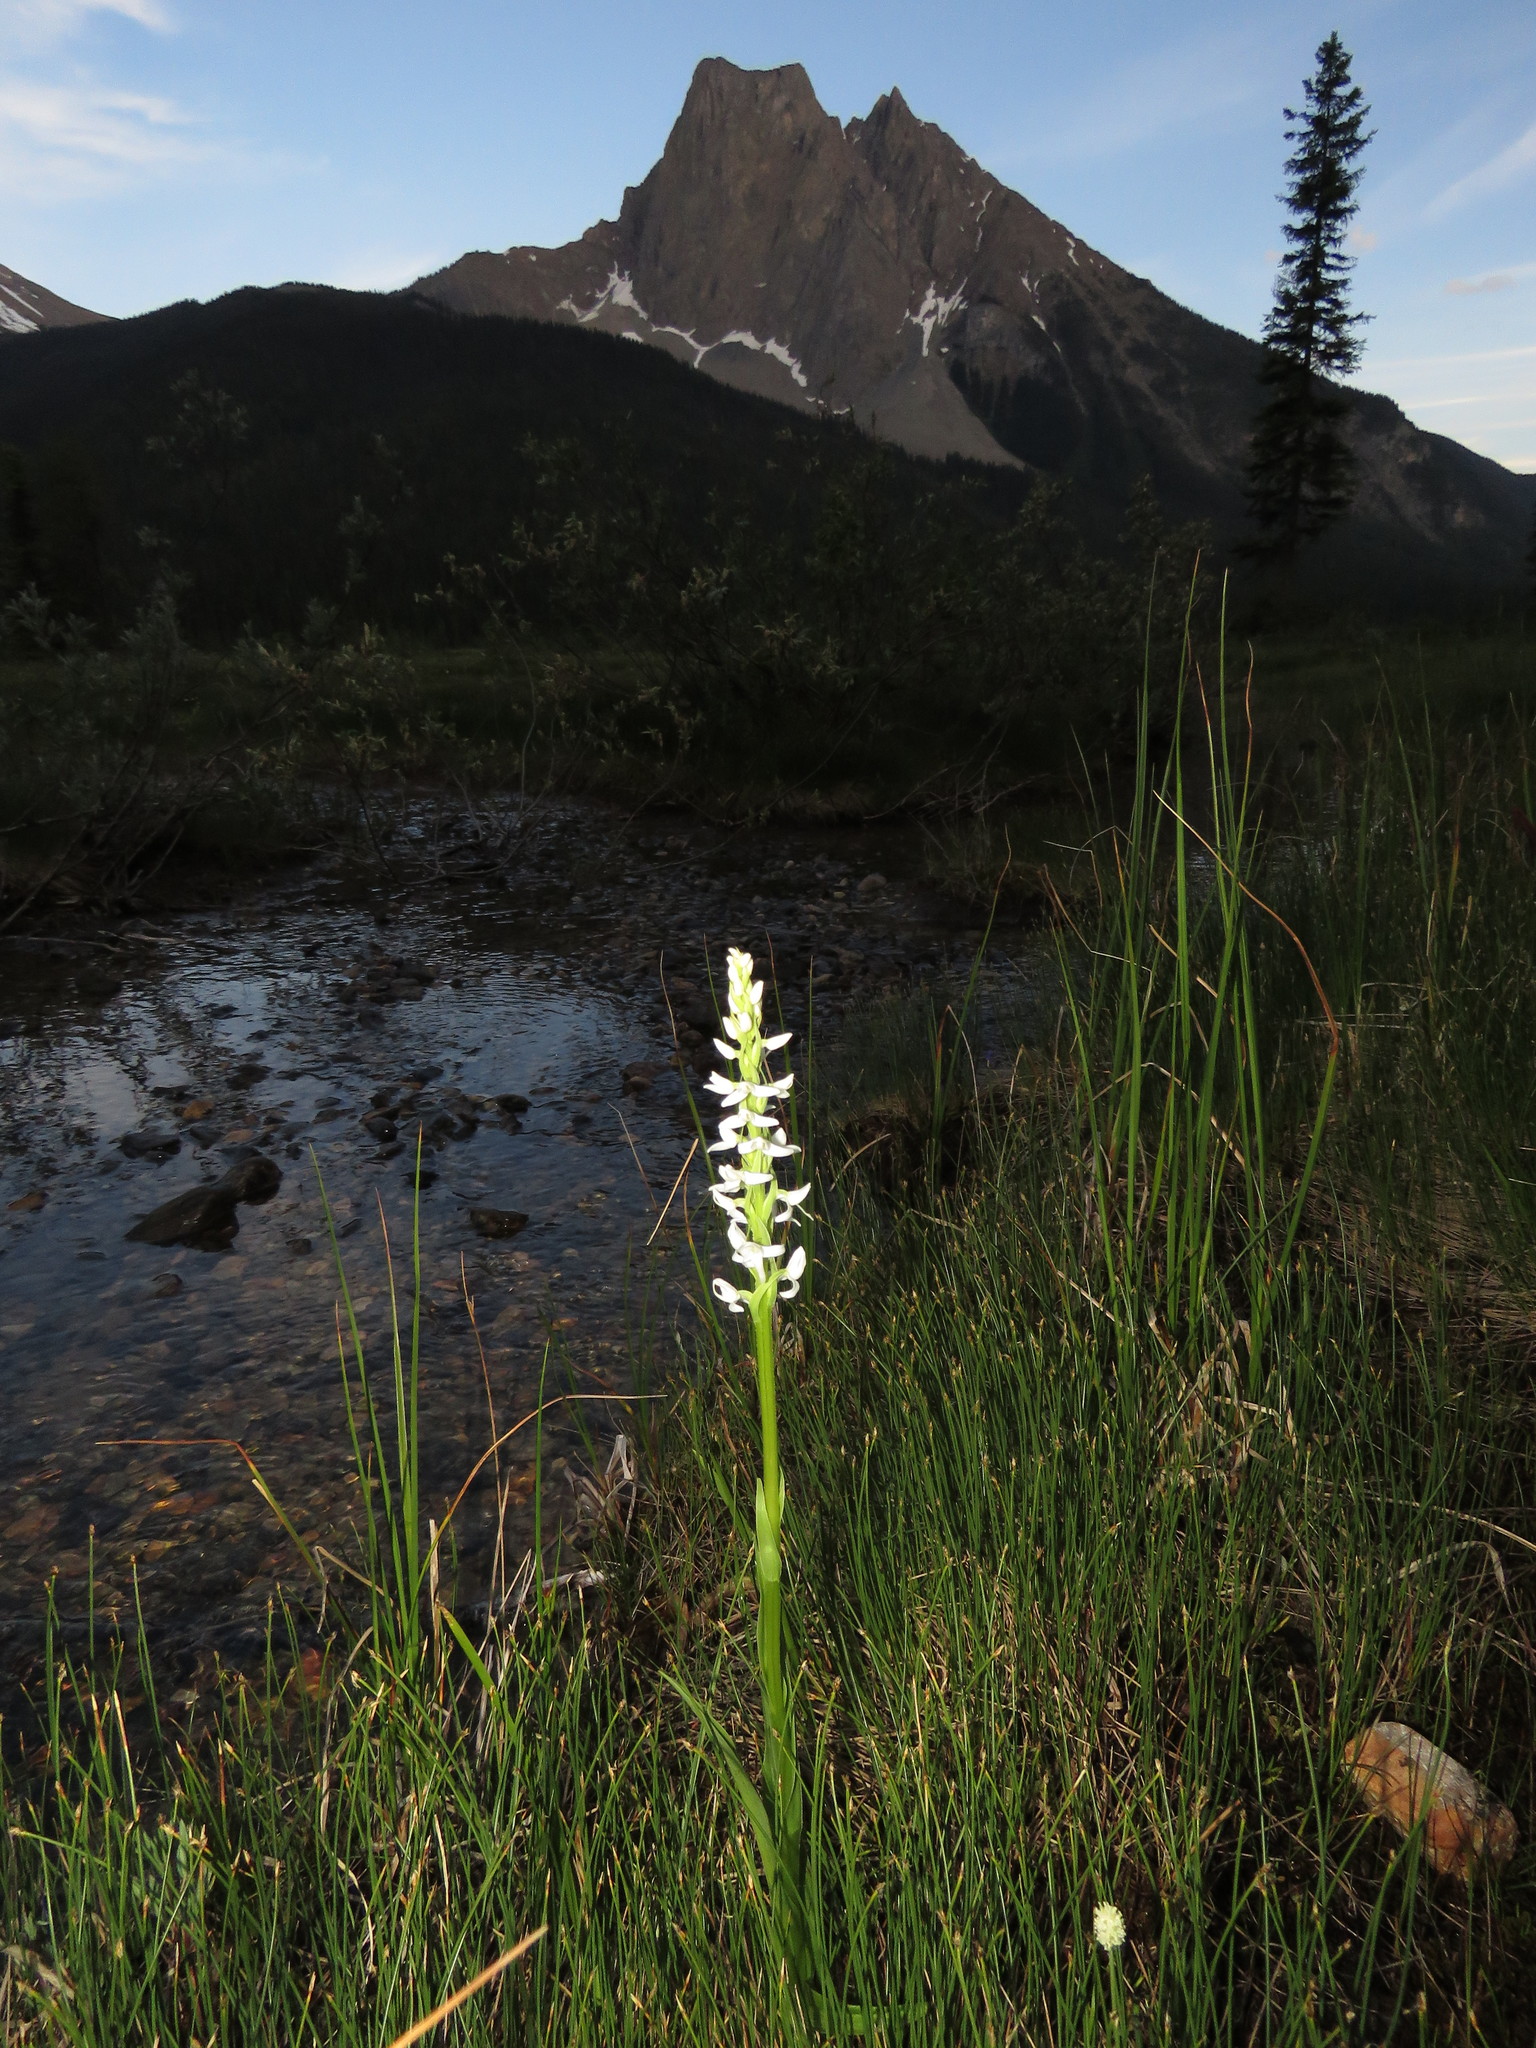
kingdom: Plantae
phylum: Tracheophyta
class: Liliopsida
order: Asparagales
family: Orchidaceae
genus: Platanthera
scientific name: Platanthera dilatata
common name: Bog candles
